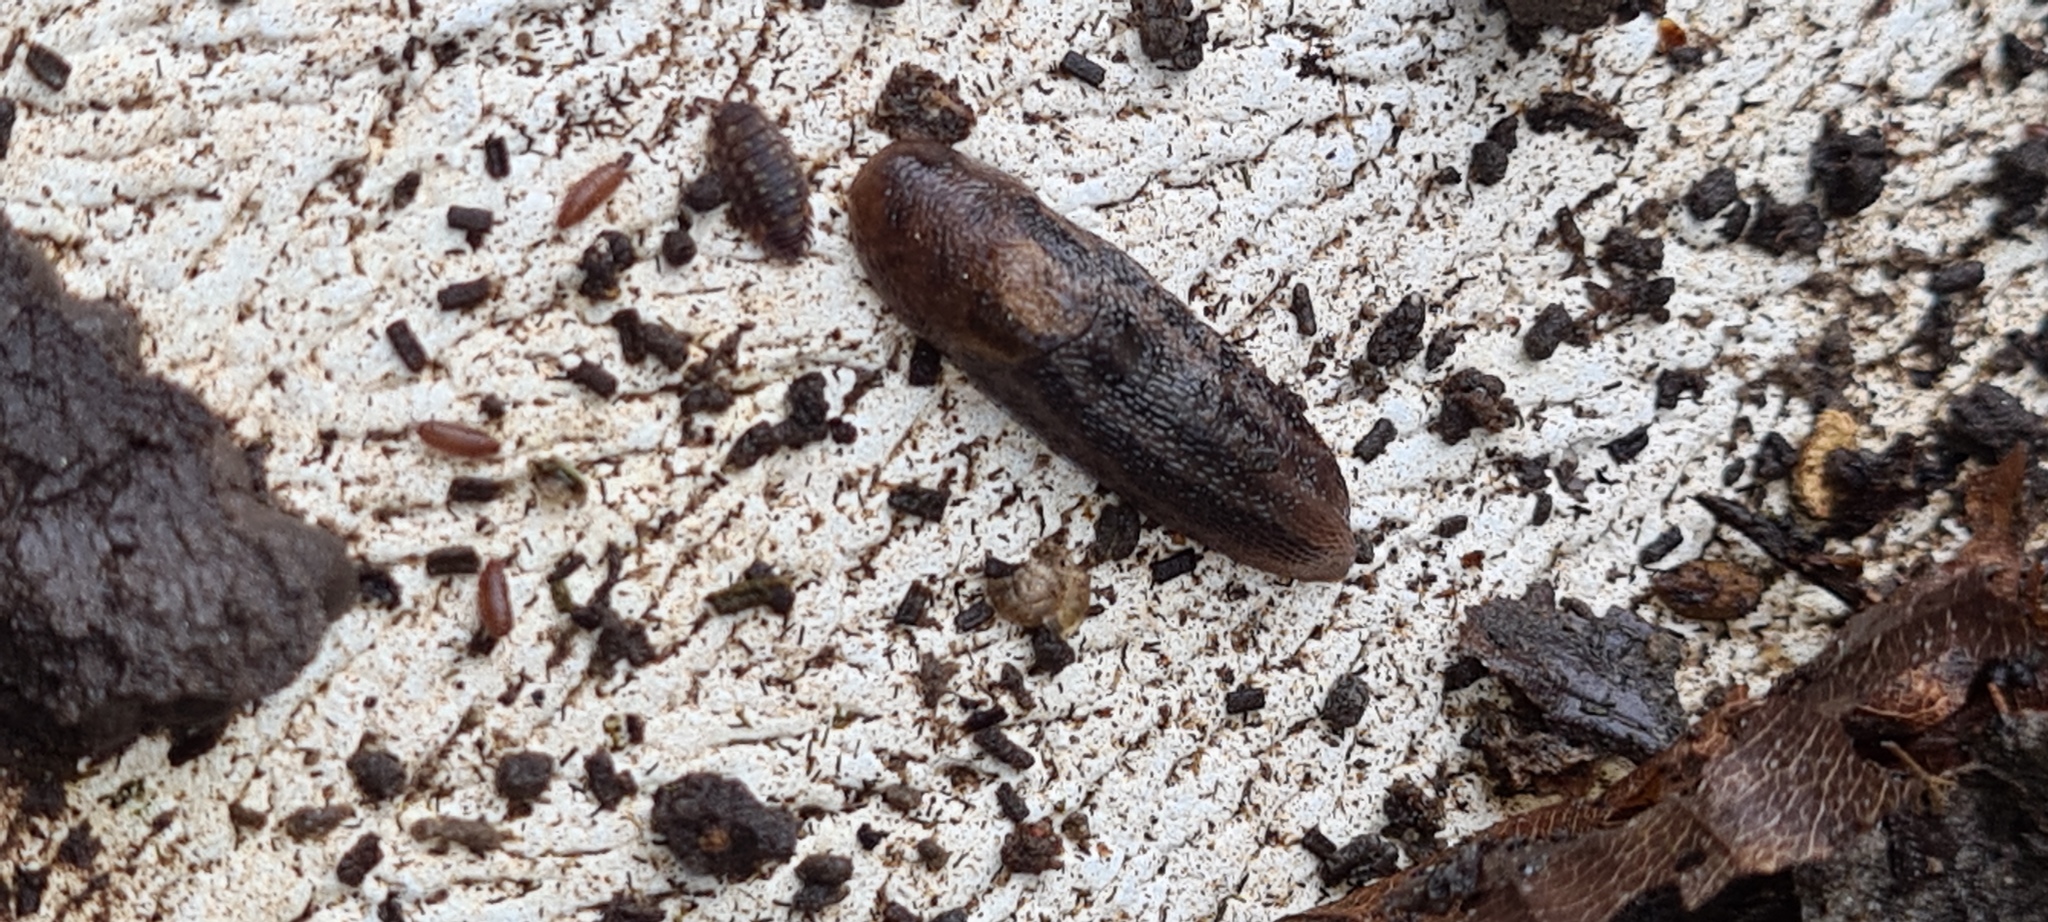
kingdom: Animalia
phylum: Mollusca
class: Gastropoda
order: Stylommatophora
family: Limacidae
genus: Limax
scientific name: Limax maximus
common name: Great grey slug
